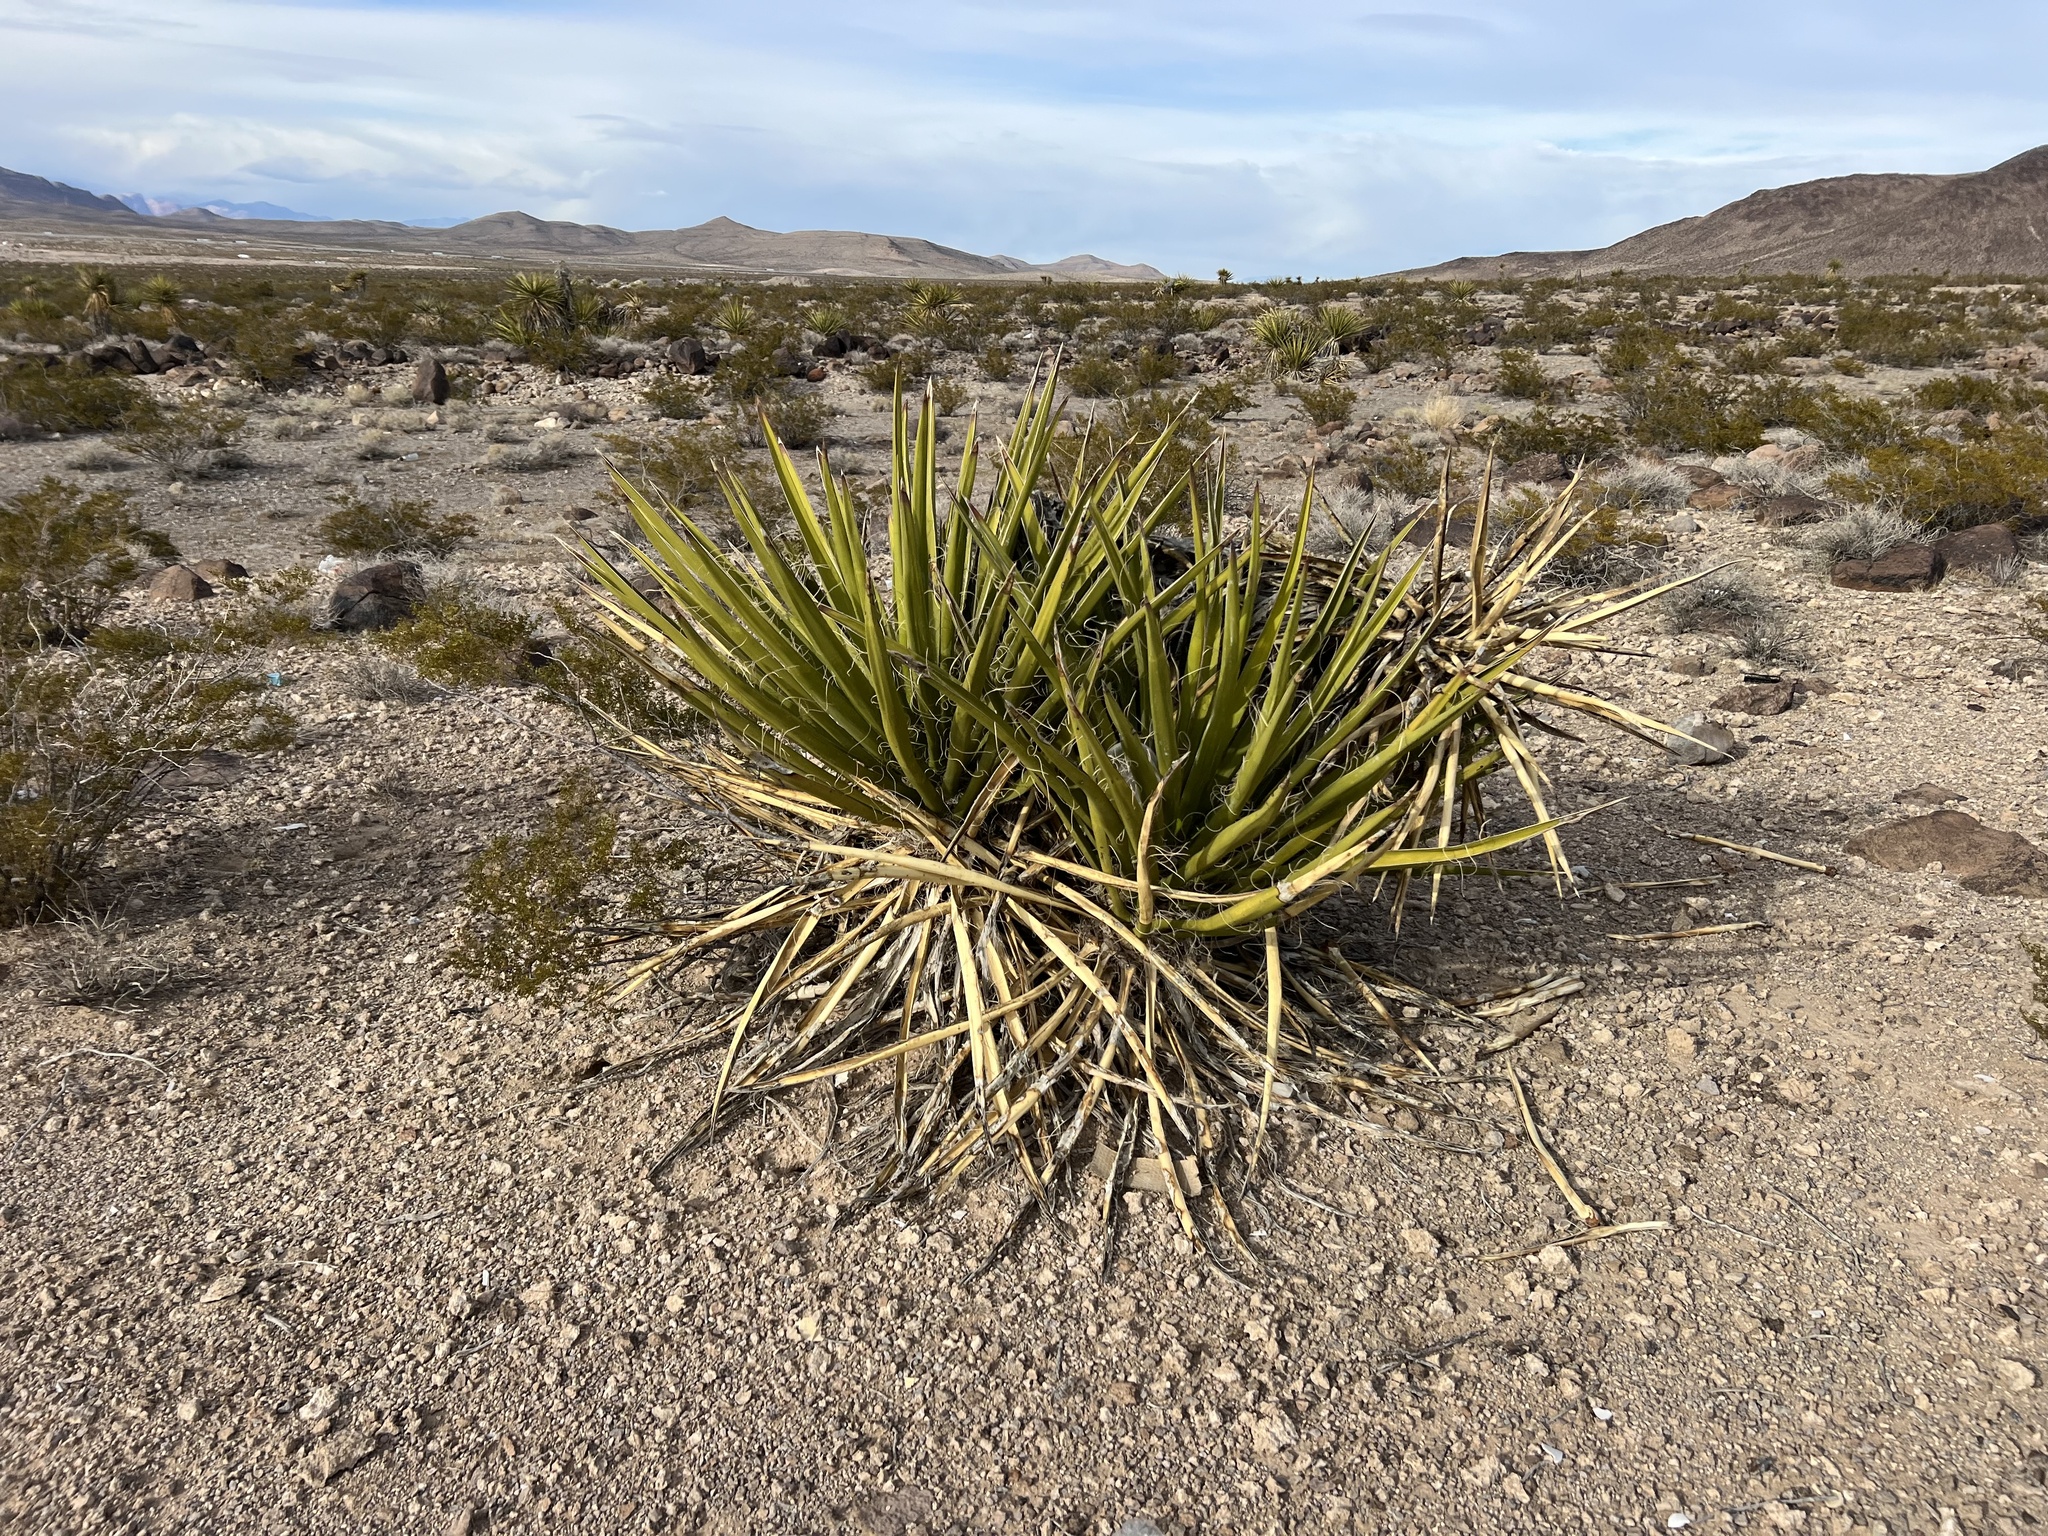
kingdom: Plantae
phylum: Tracheophyta
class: Liliopsida
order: Asparagales
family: Asparagaceae
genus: Yucca
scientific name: Yucca schidigera
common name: Mojave yucca
